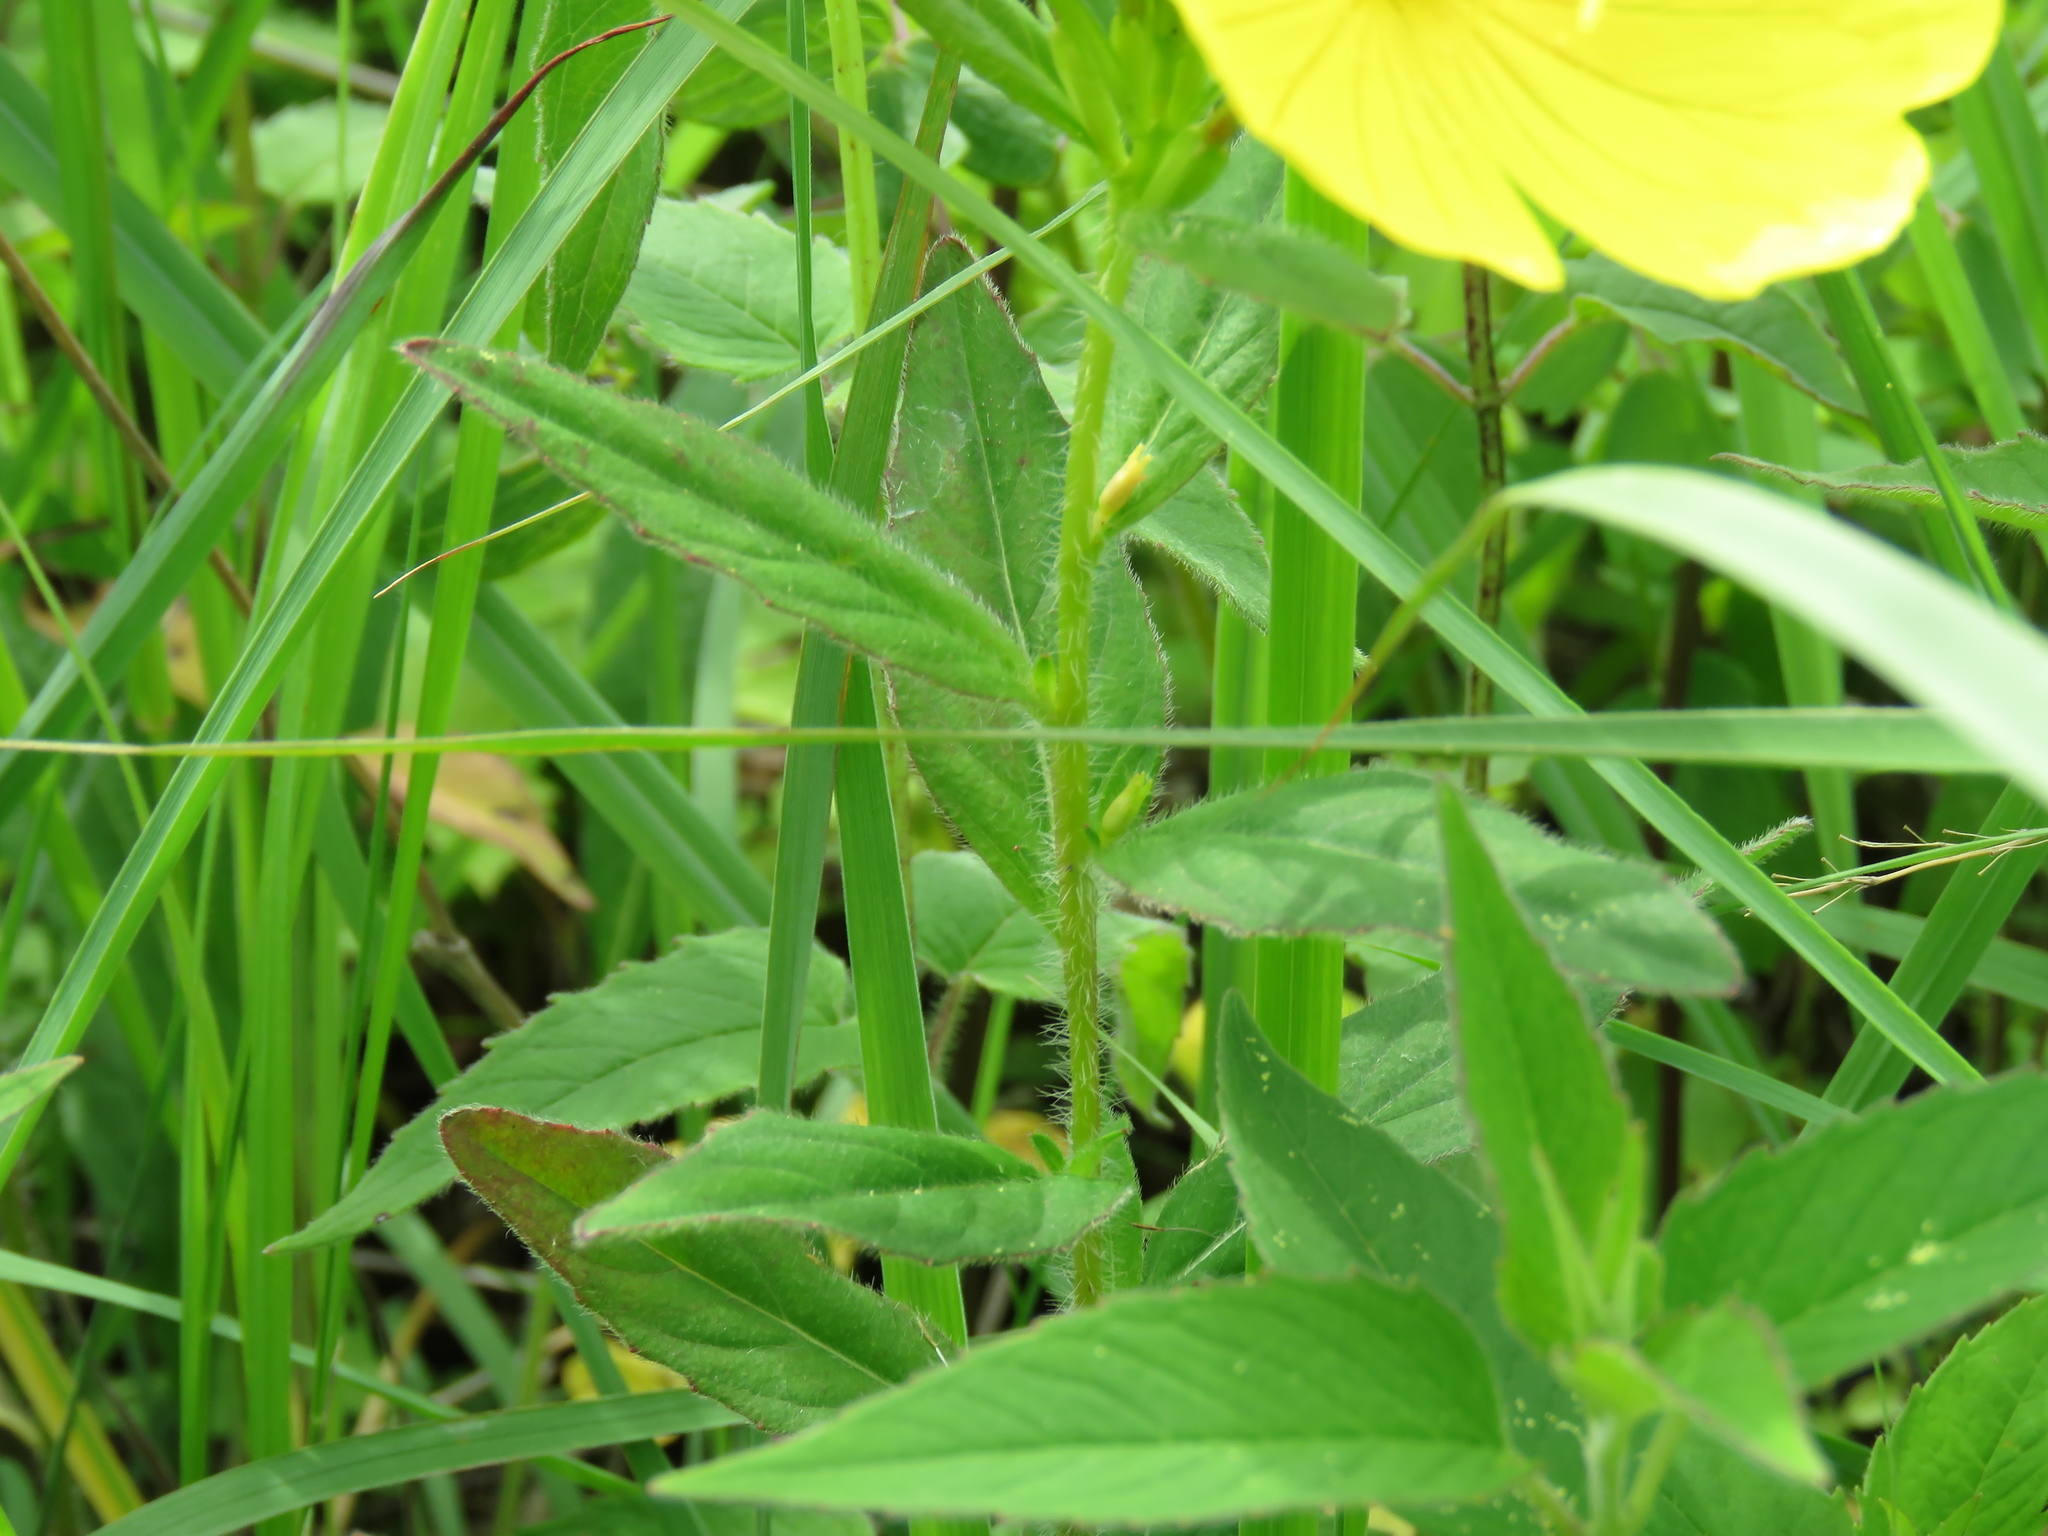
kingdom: Plantae
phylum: Tracheophyta
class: Magnoliopsida
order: Myrtales
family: Onagraceae
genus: Oenothera
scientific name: Oenothera pilosella
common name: Finely-pilose evening-primrose
